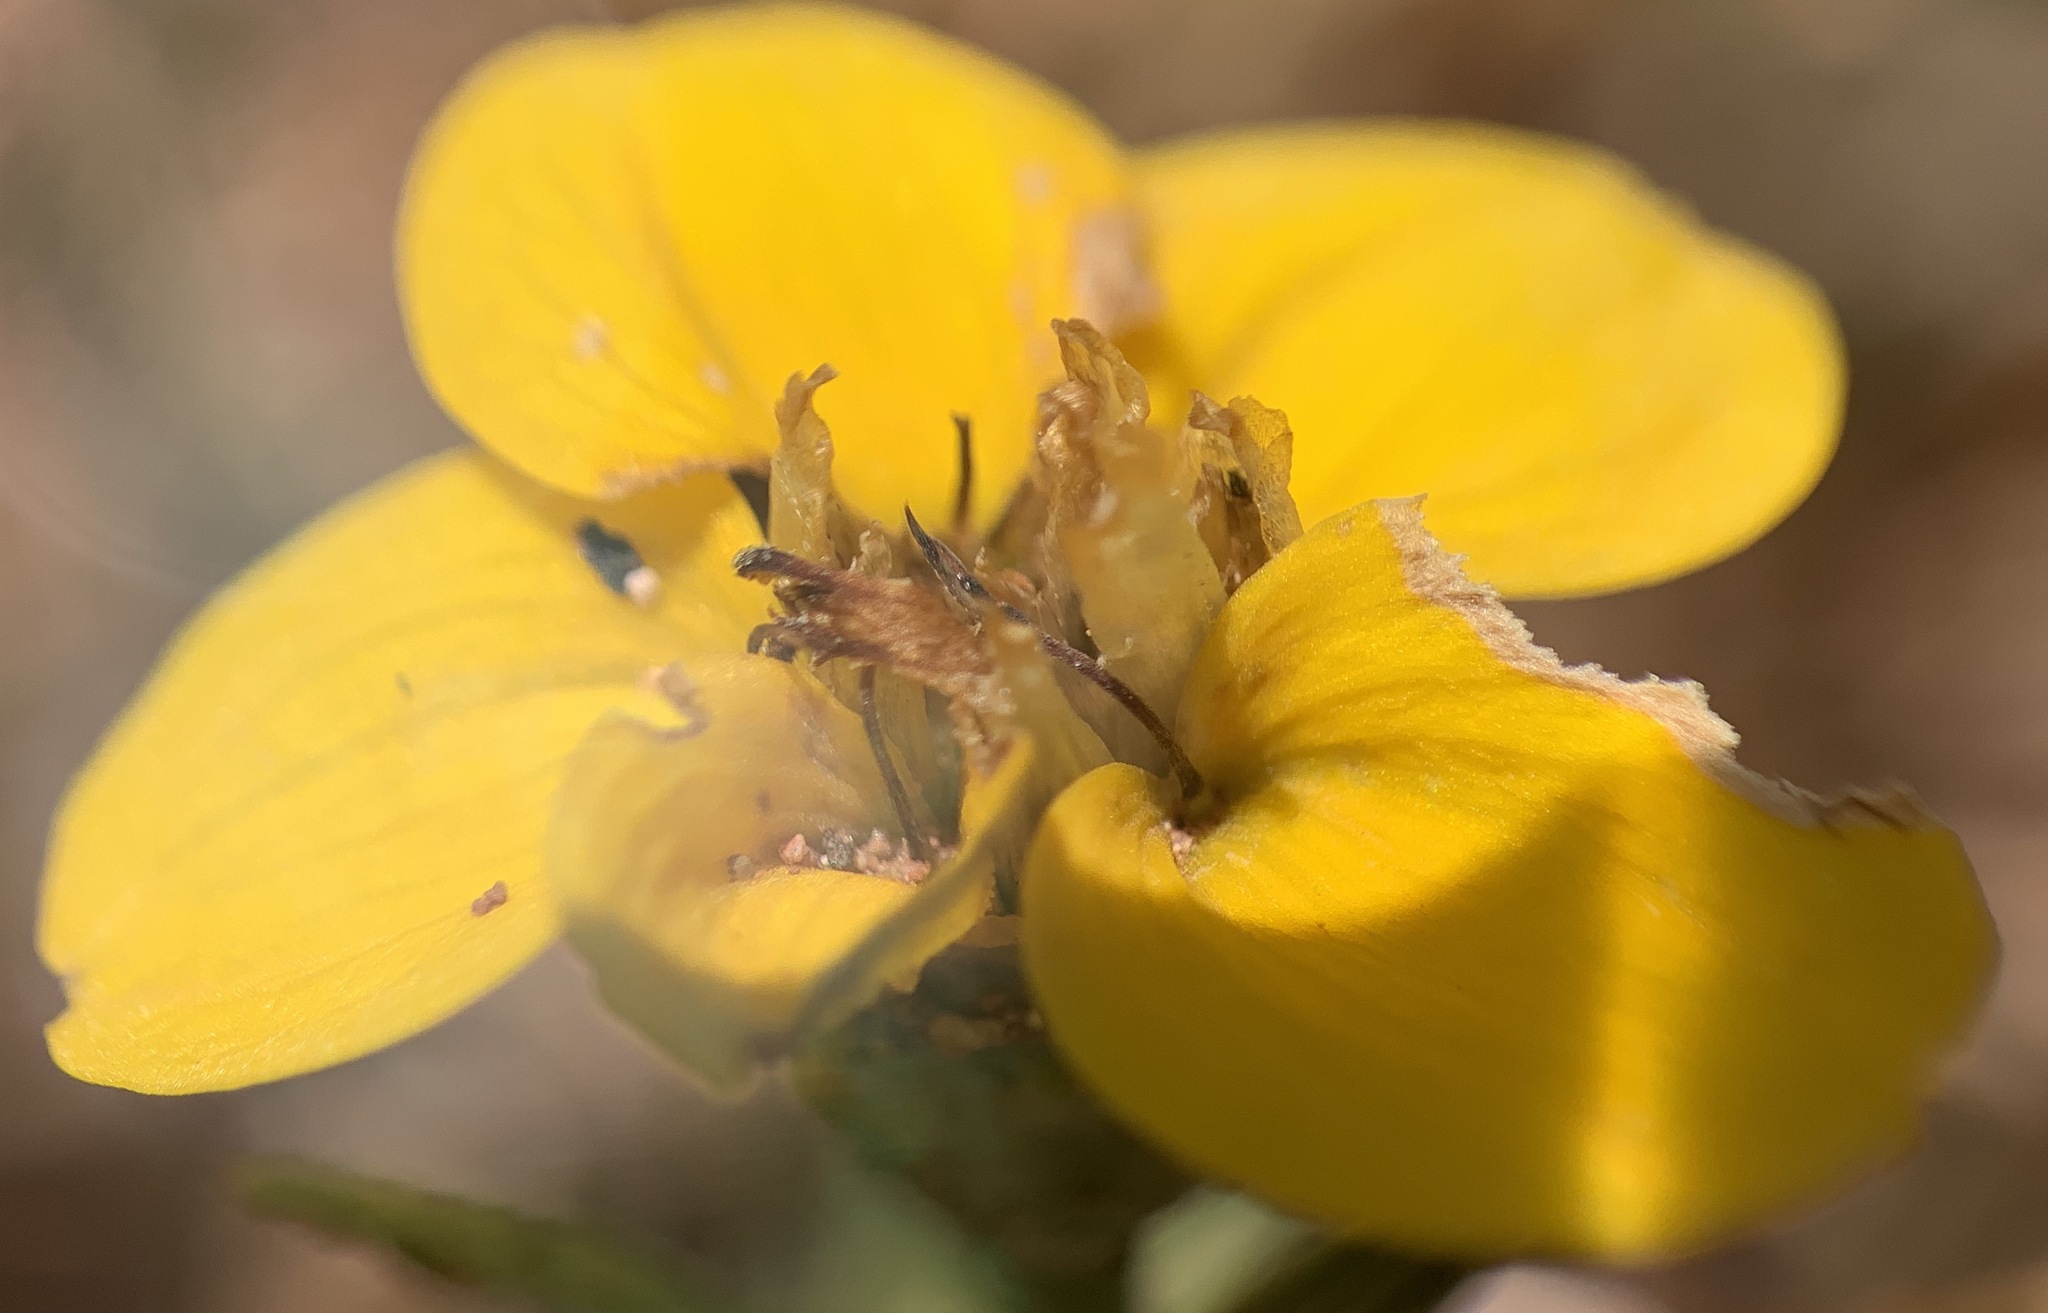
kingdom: Plantae
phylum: Tracheophyta
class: Magnoliopsida
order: Asterales
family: Asteraceae
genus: Zinnia
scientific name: Zinnia grandiflora
